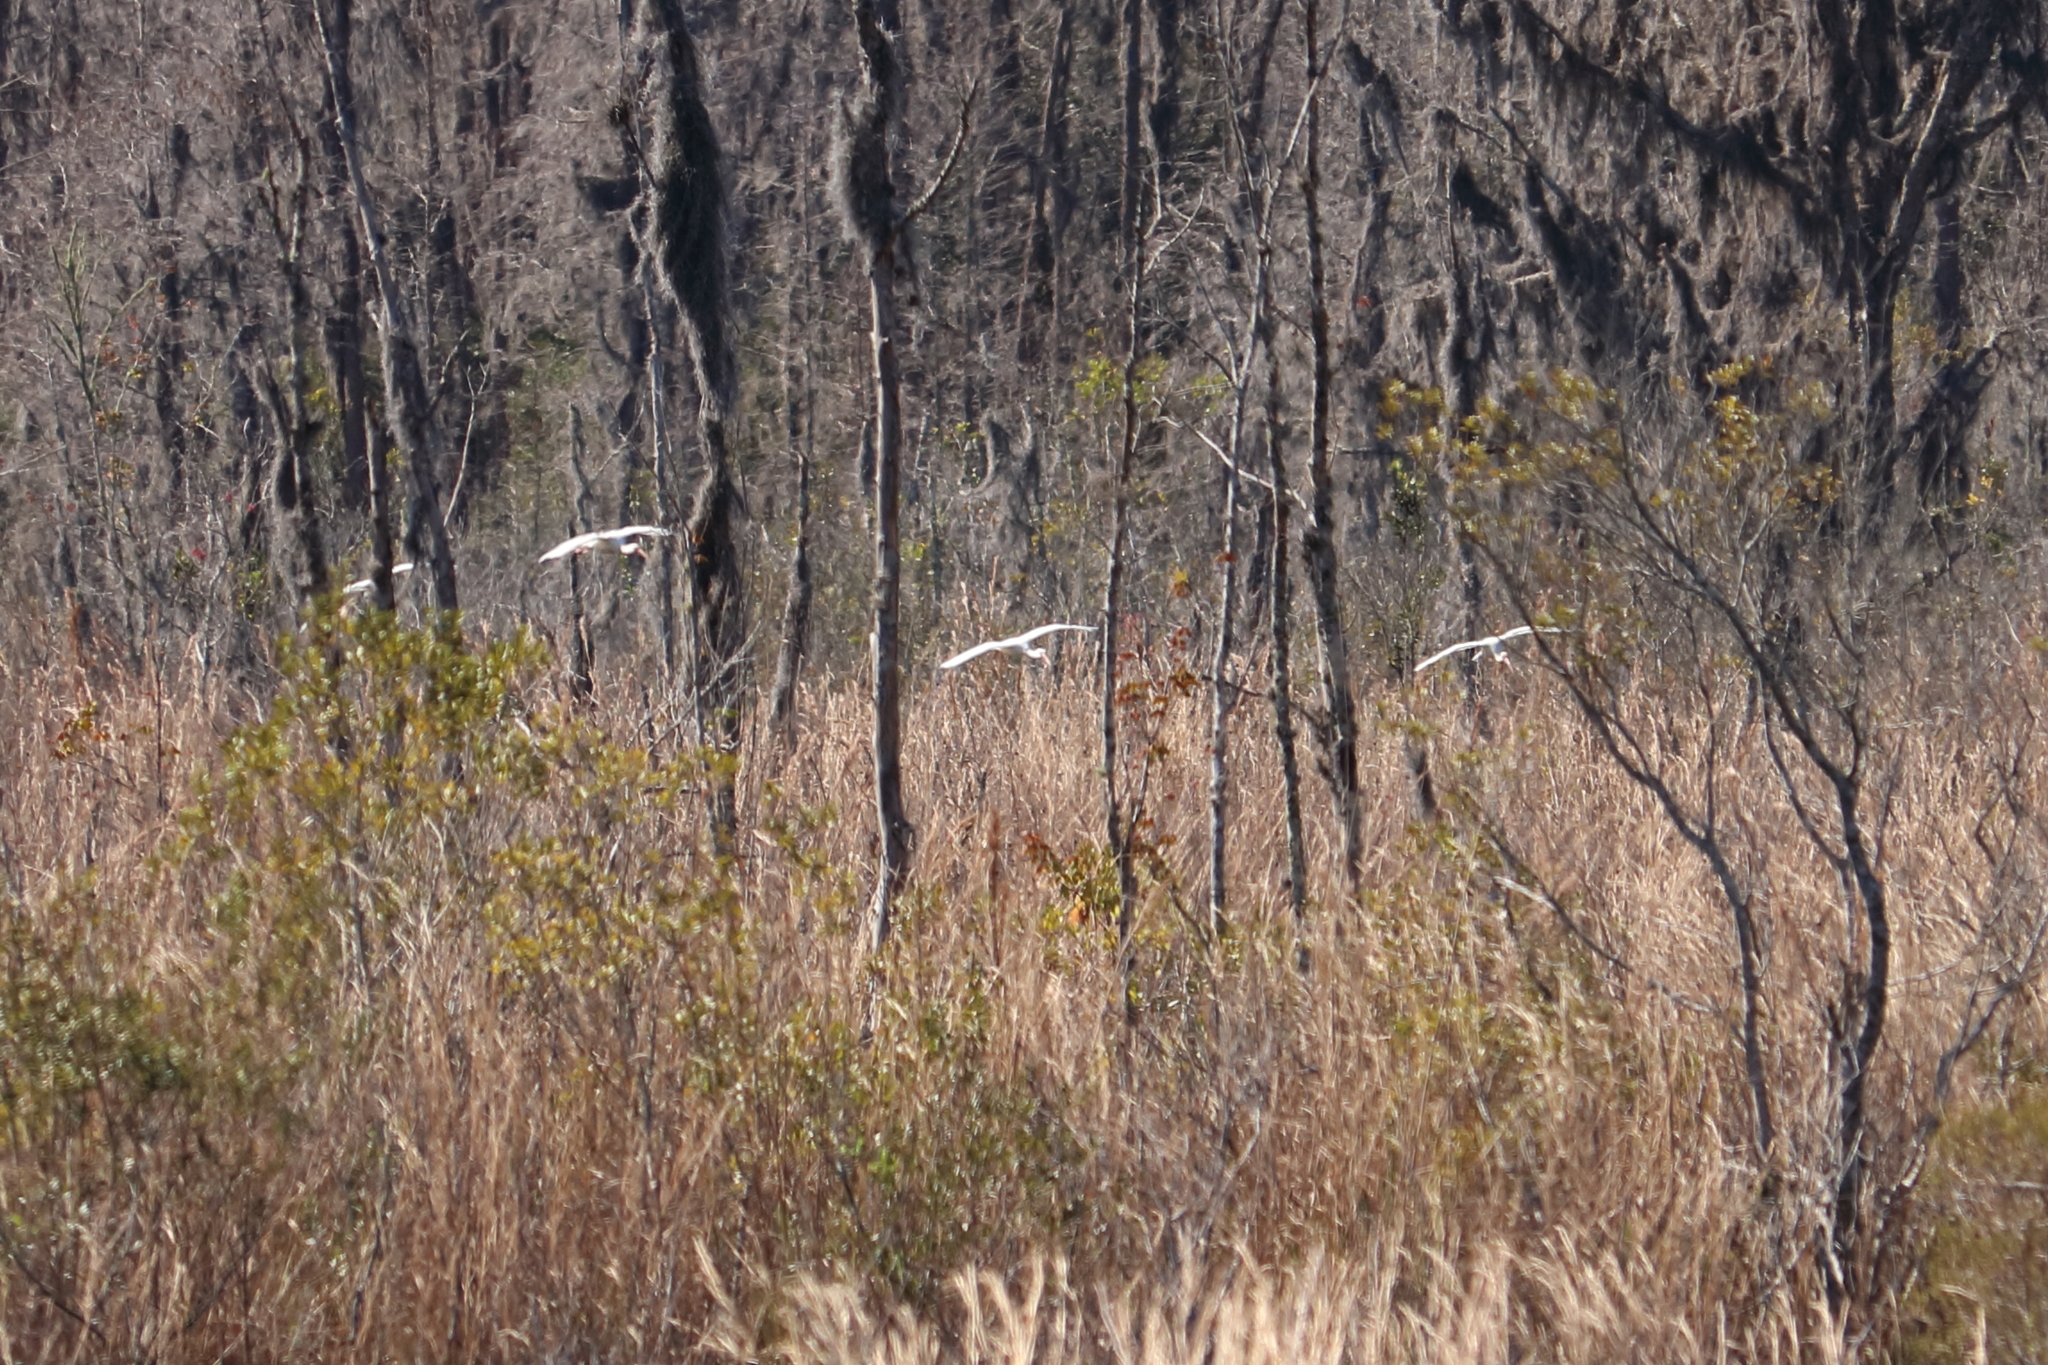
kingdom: Animalia
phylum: Chordata
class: Aves
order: Pelecaniformes
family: Threskiornithidae
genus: Eudocimus
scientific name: Eudocimus albus
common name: White ibis
